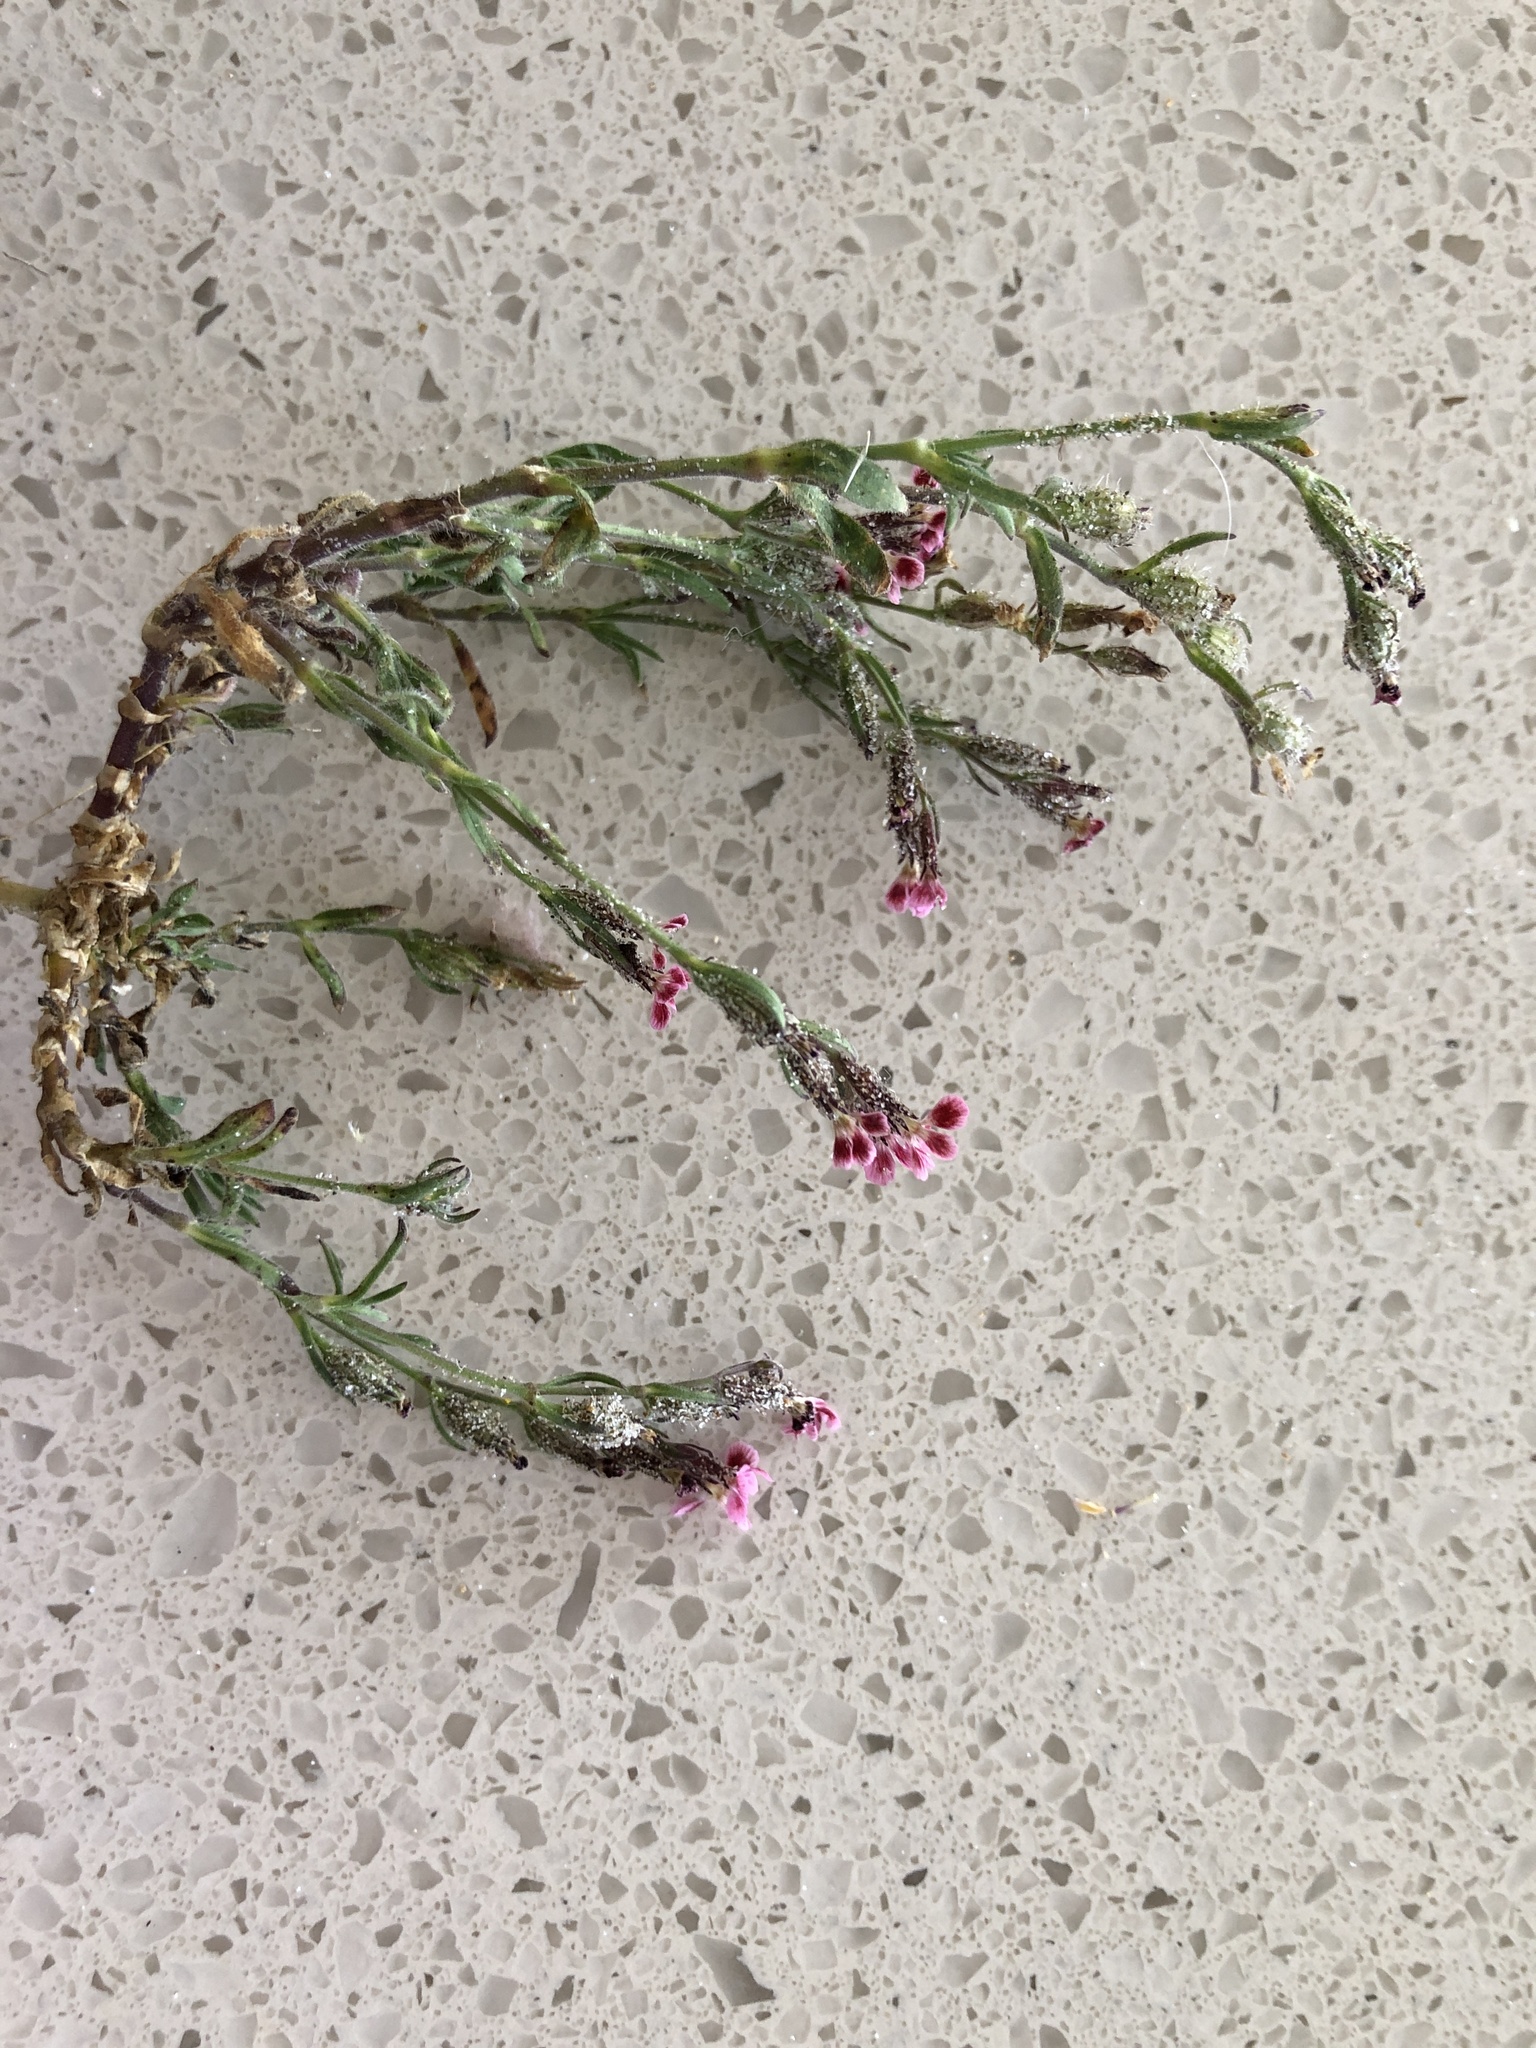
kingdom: Plantae
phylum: Tracheophyta
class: Magnoliopsida
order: Caryophyllales
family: Caryophyllaceae
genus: Silene
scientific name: Silene gallica
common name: Small-flowered catchfly
